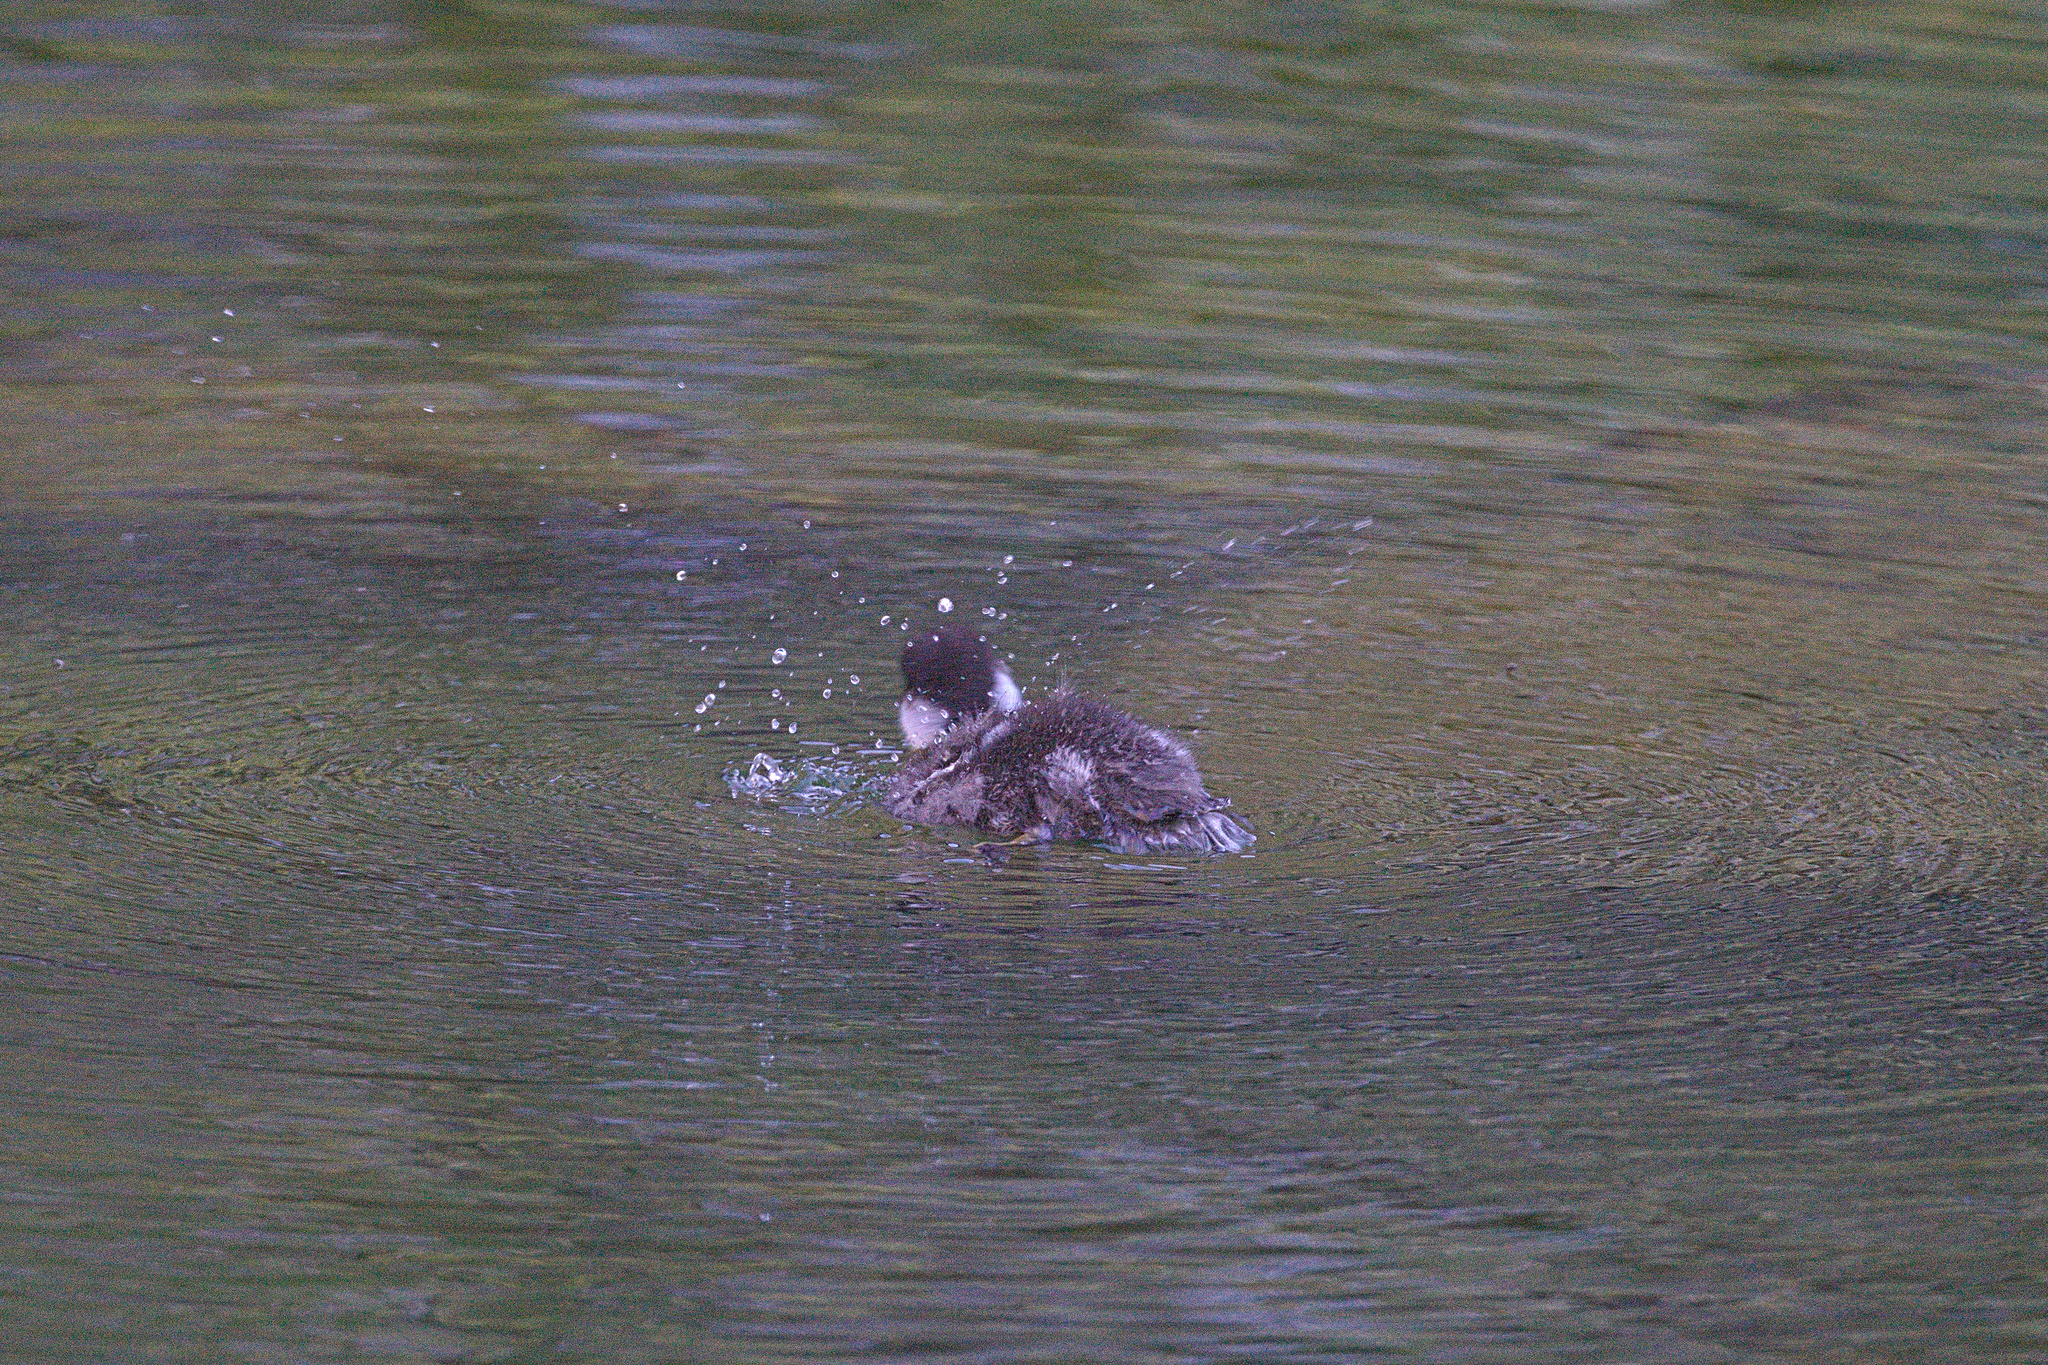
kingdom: Animalia
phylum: Chordata
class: Aves
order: Anseriformes
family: Anatidae
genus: Bucephala
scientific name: Bucephala islandica
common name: Barrow's goldeneye
